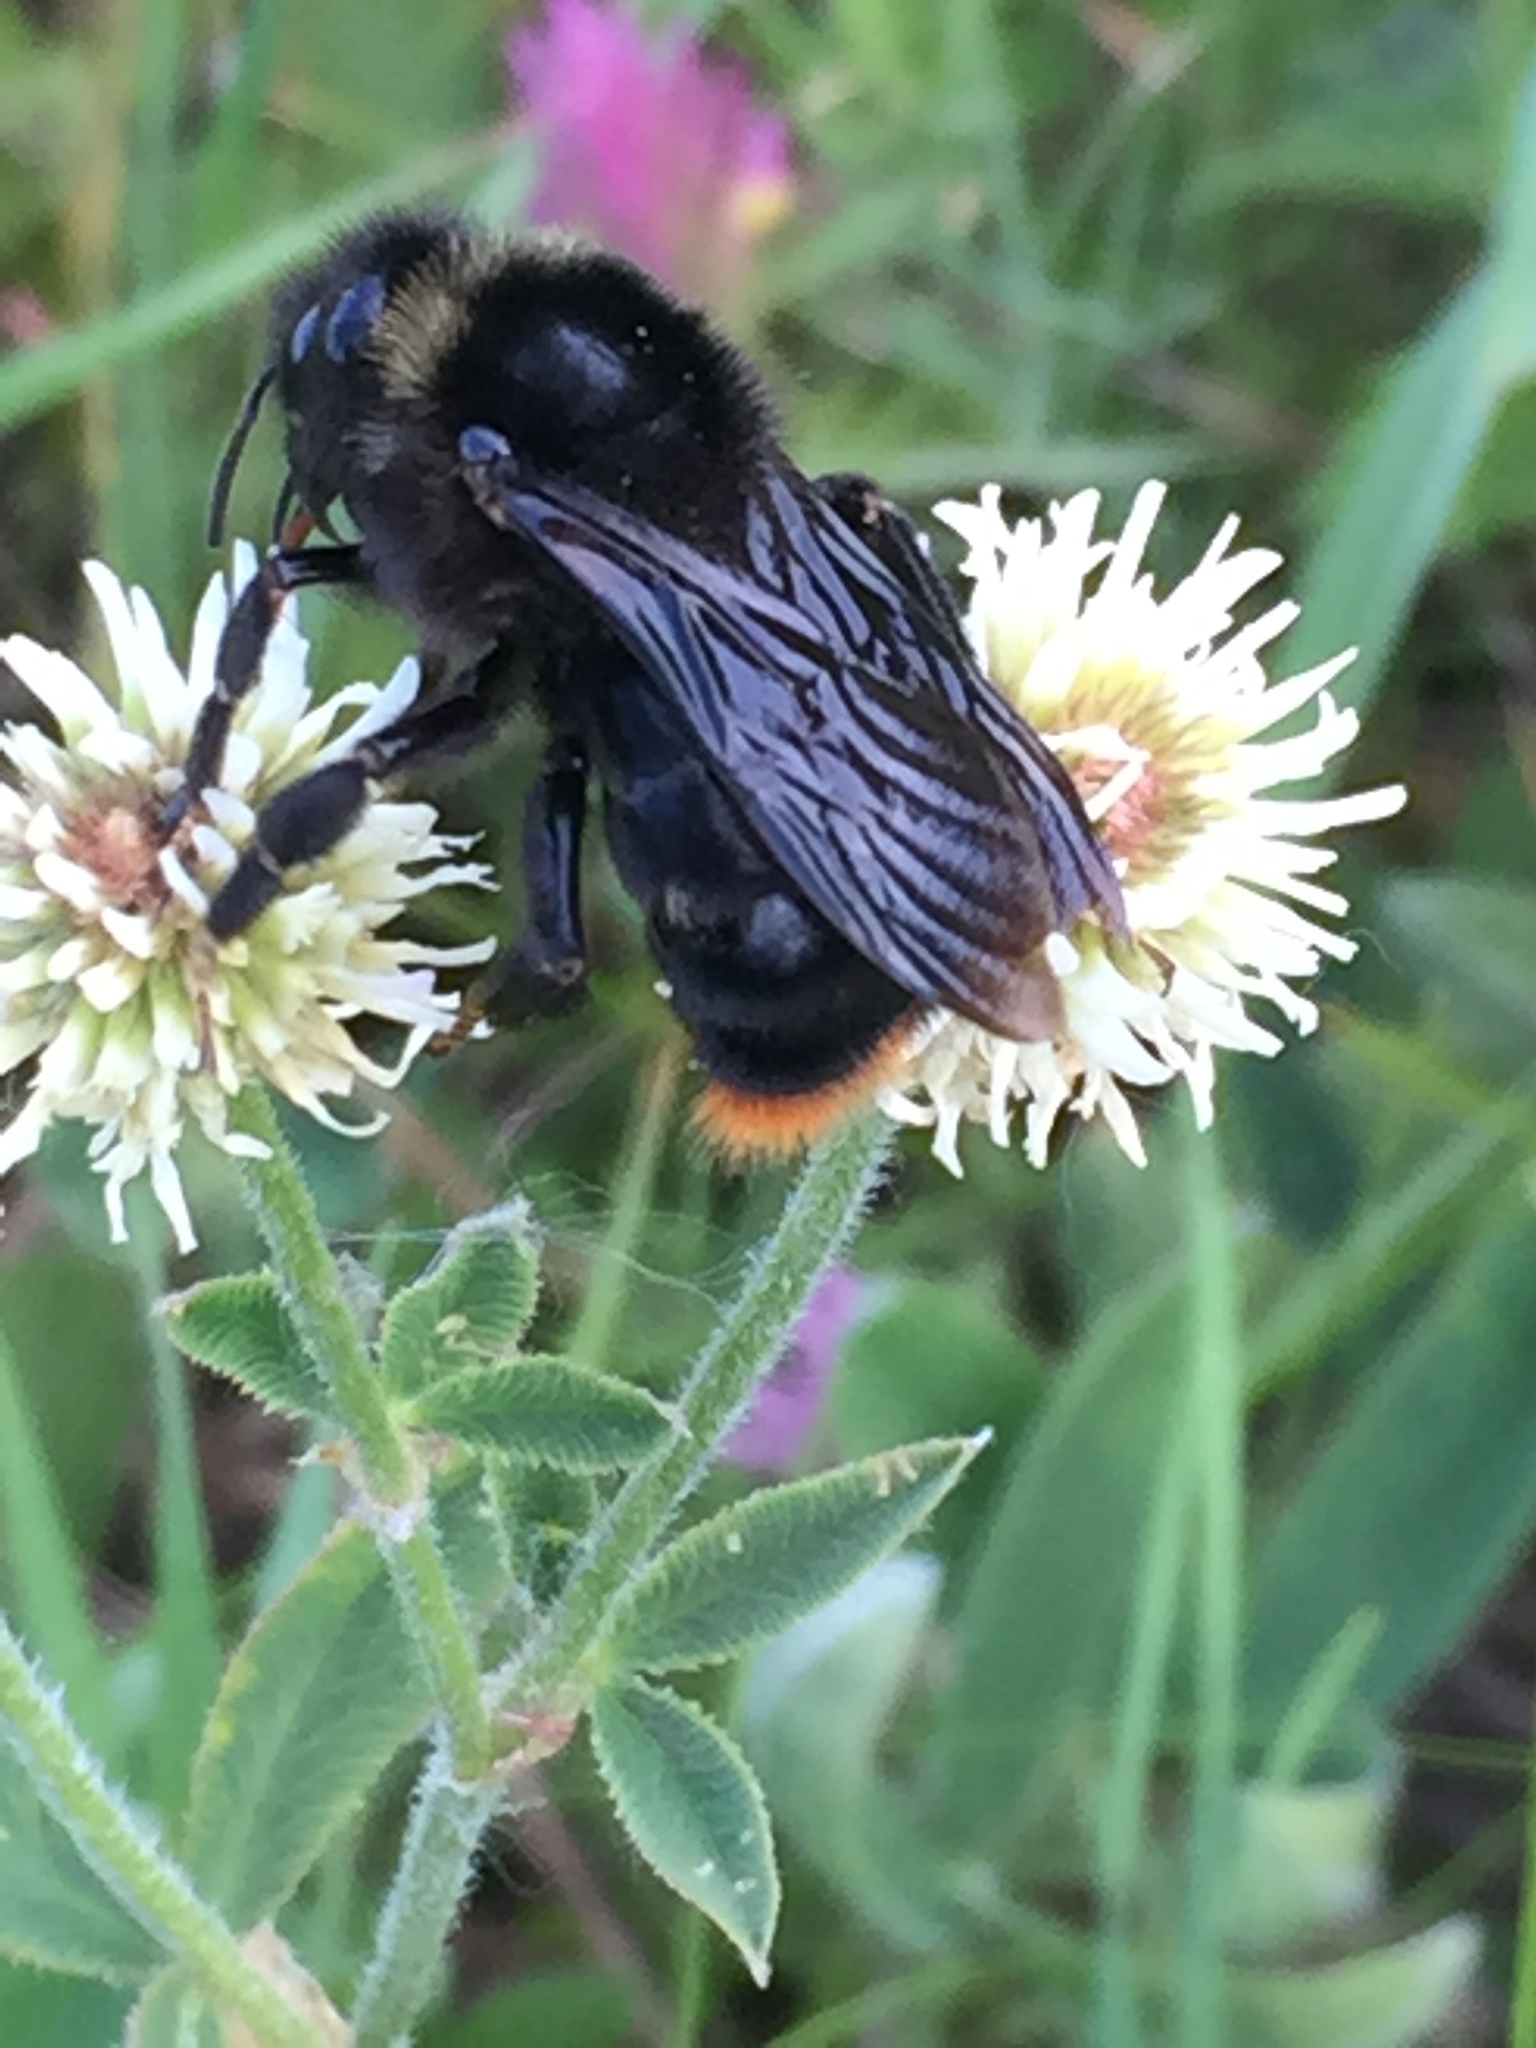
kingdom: Animalia
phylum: Arthropoda
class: Insecta
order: Hymenoptera
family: Apidae
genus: Bombus
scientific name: Bombus rupestris
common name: Hill cuckoo-bee
